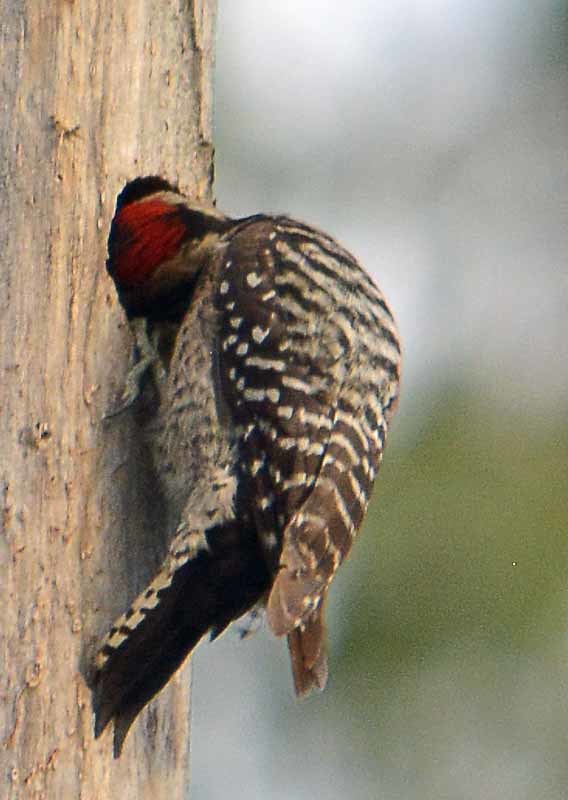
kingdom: Animalia
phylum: Chordata
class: Aves
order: Piciformes
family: Picidae
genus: Dryobates
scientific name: Dryobates scalaris
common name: Ladder-backed woodpecker
